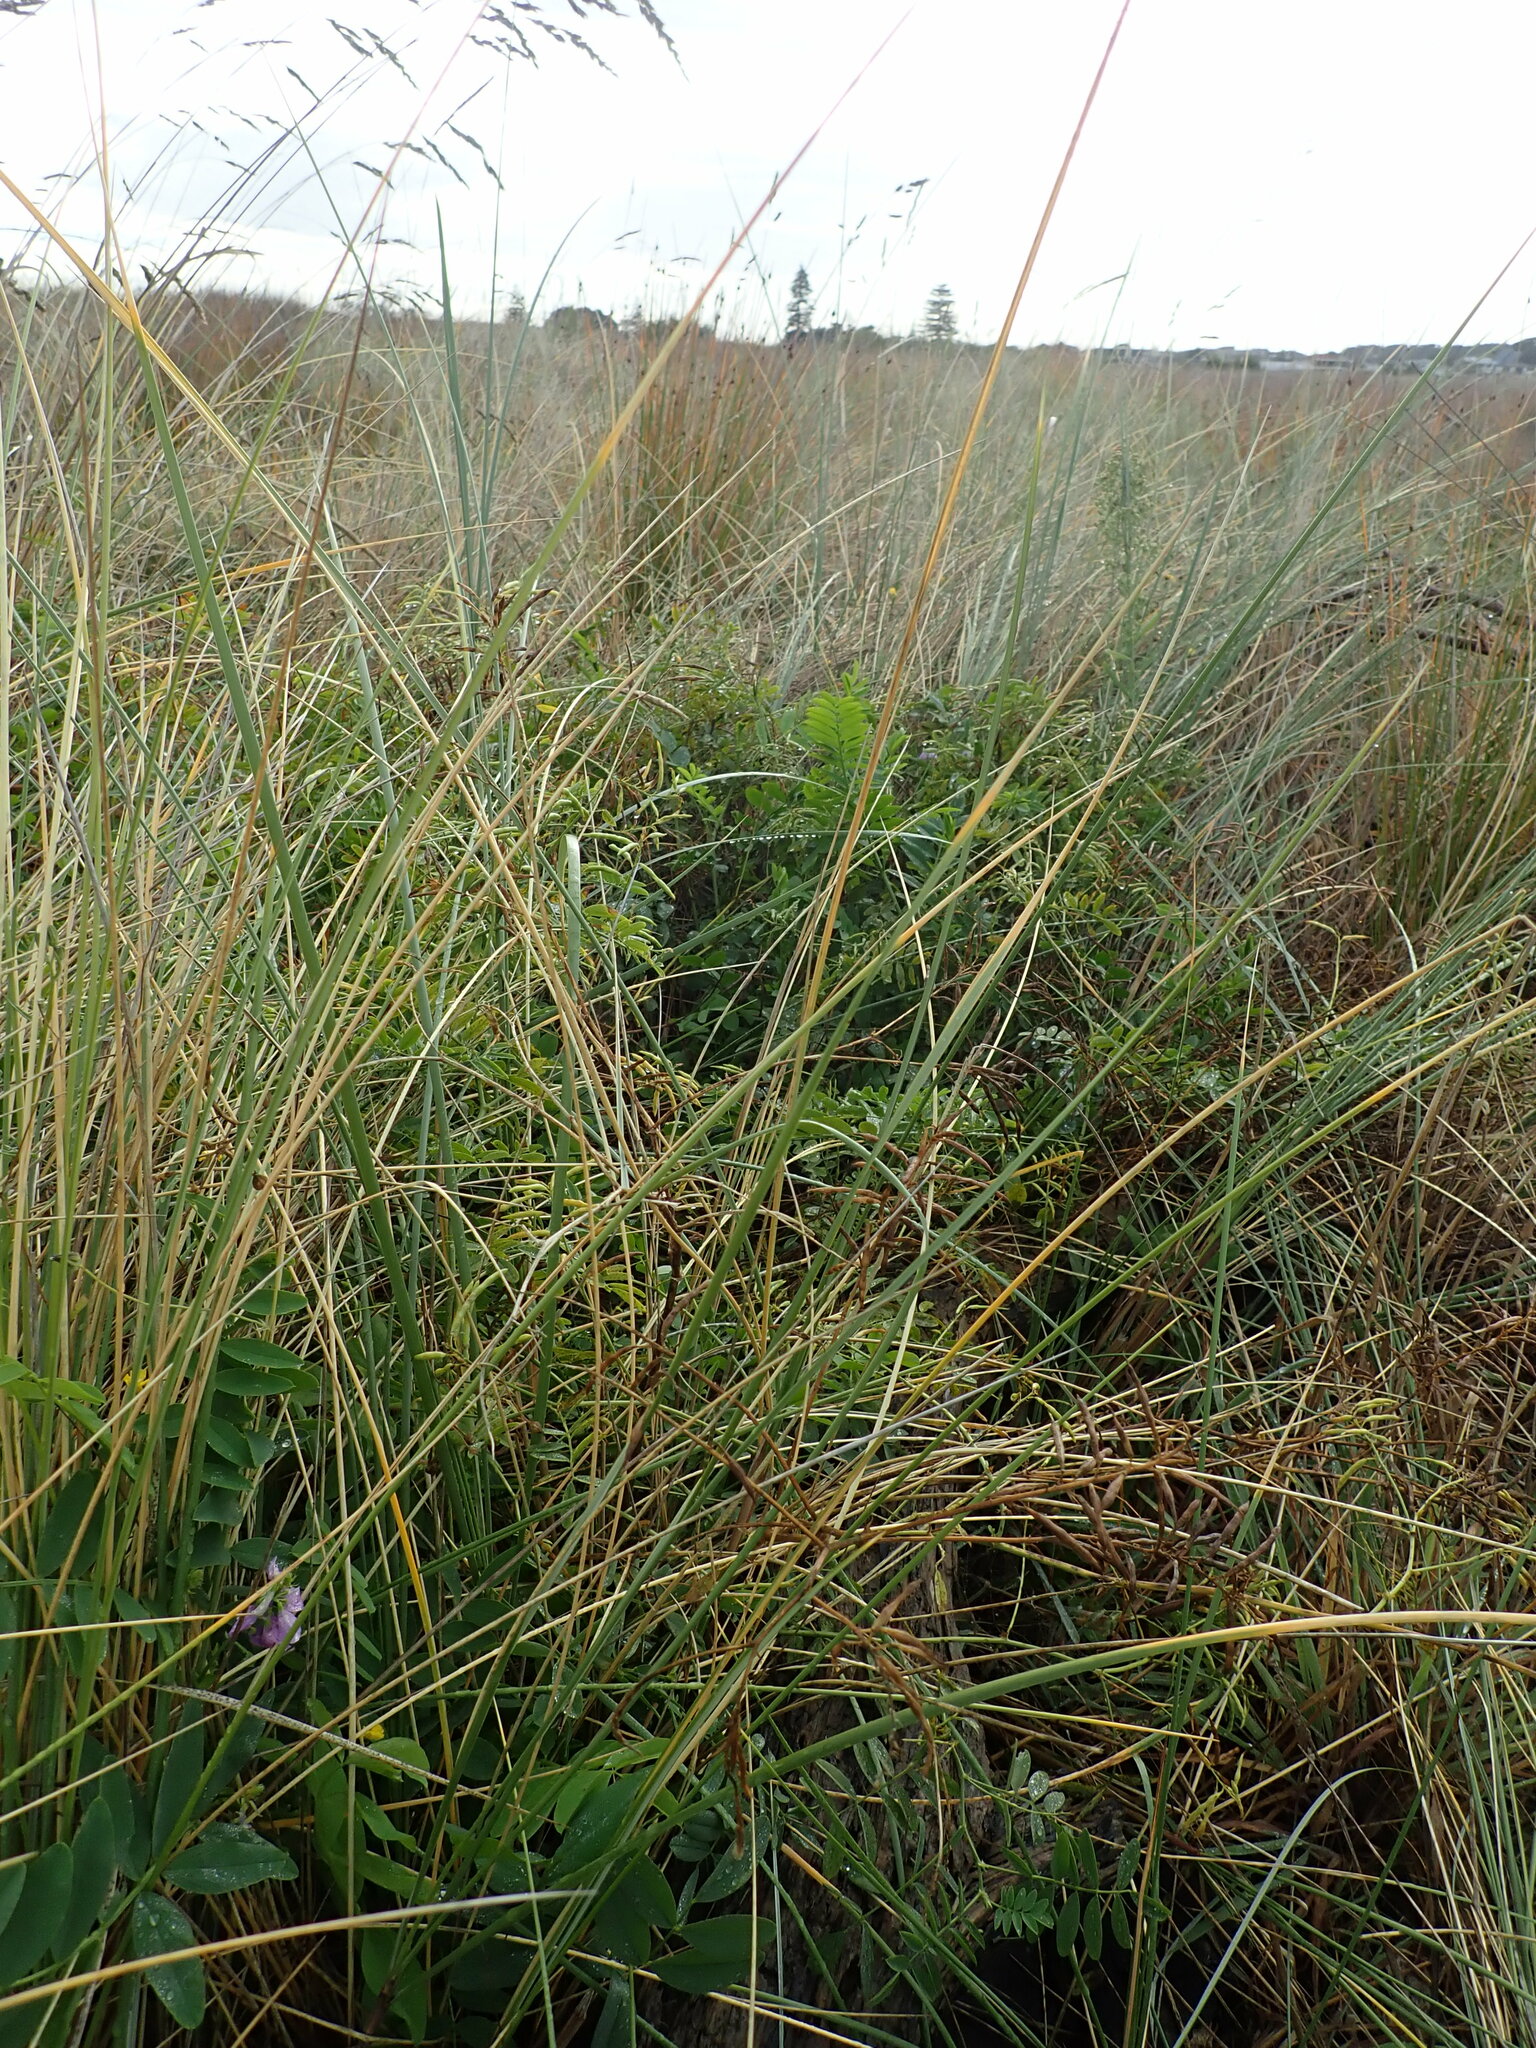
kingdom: Plantae
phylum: Tracheophyta
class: Magnoliopsida
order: Fabales
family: Fabaceae
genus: Galega
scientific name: Galega officinalis
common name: Goat's-rue
